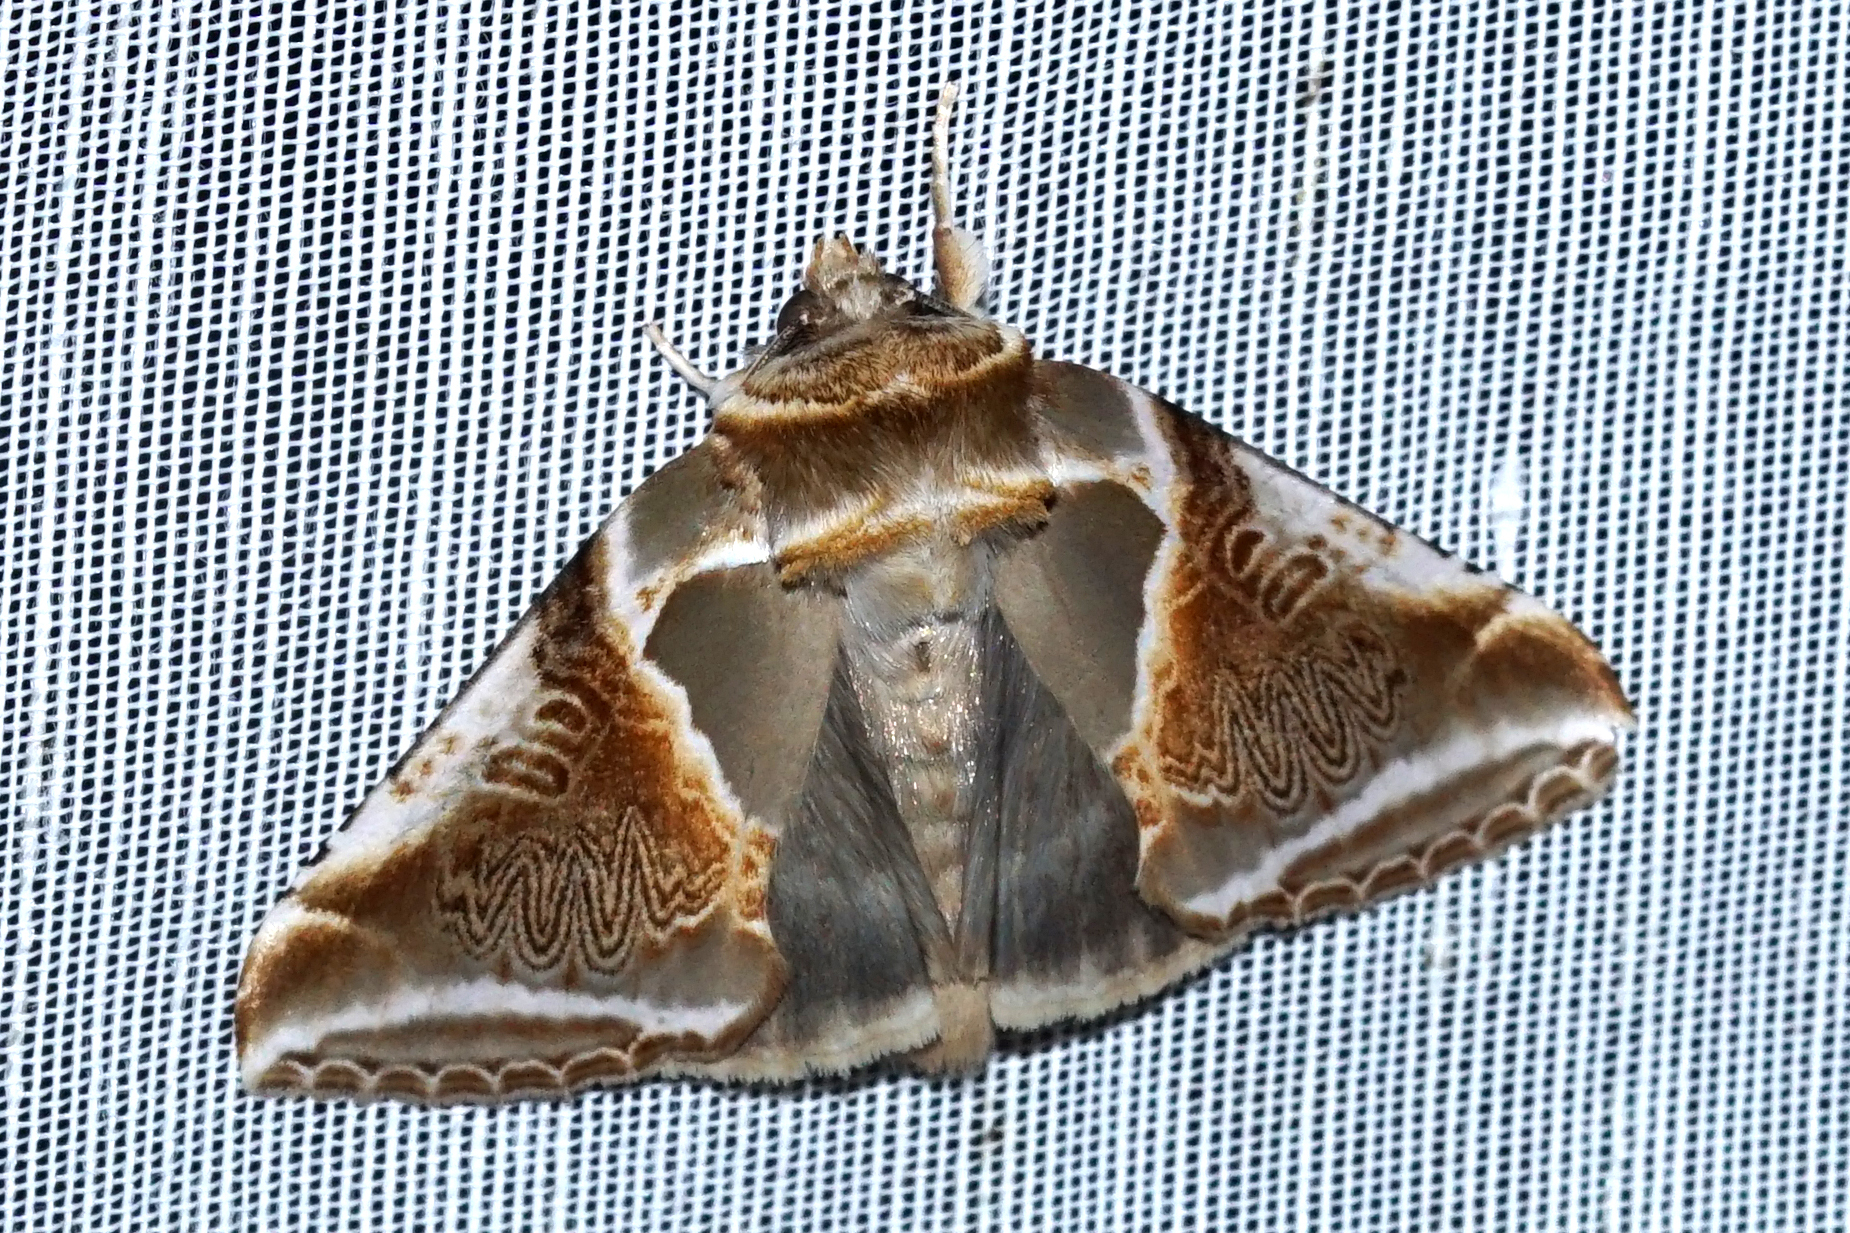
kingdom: Animalia
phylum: Arthropoda
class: Insecta
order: Lepidoptera
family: Drepanidae
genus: Habrosyne
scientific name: Habrosyne pyritoides
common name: Buff arches
